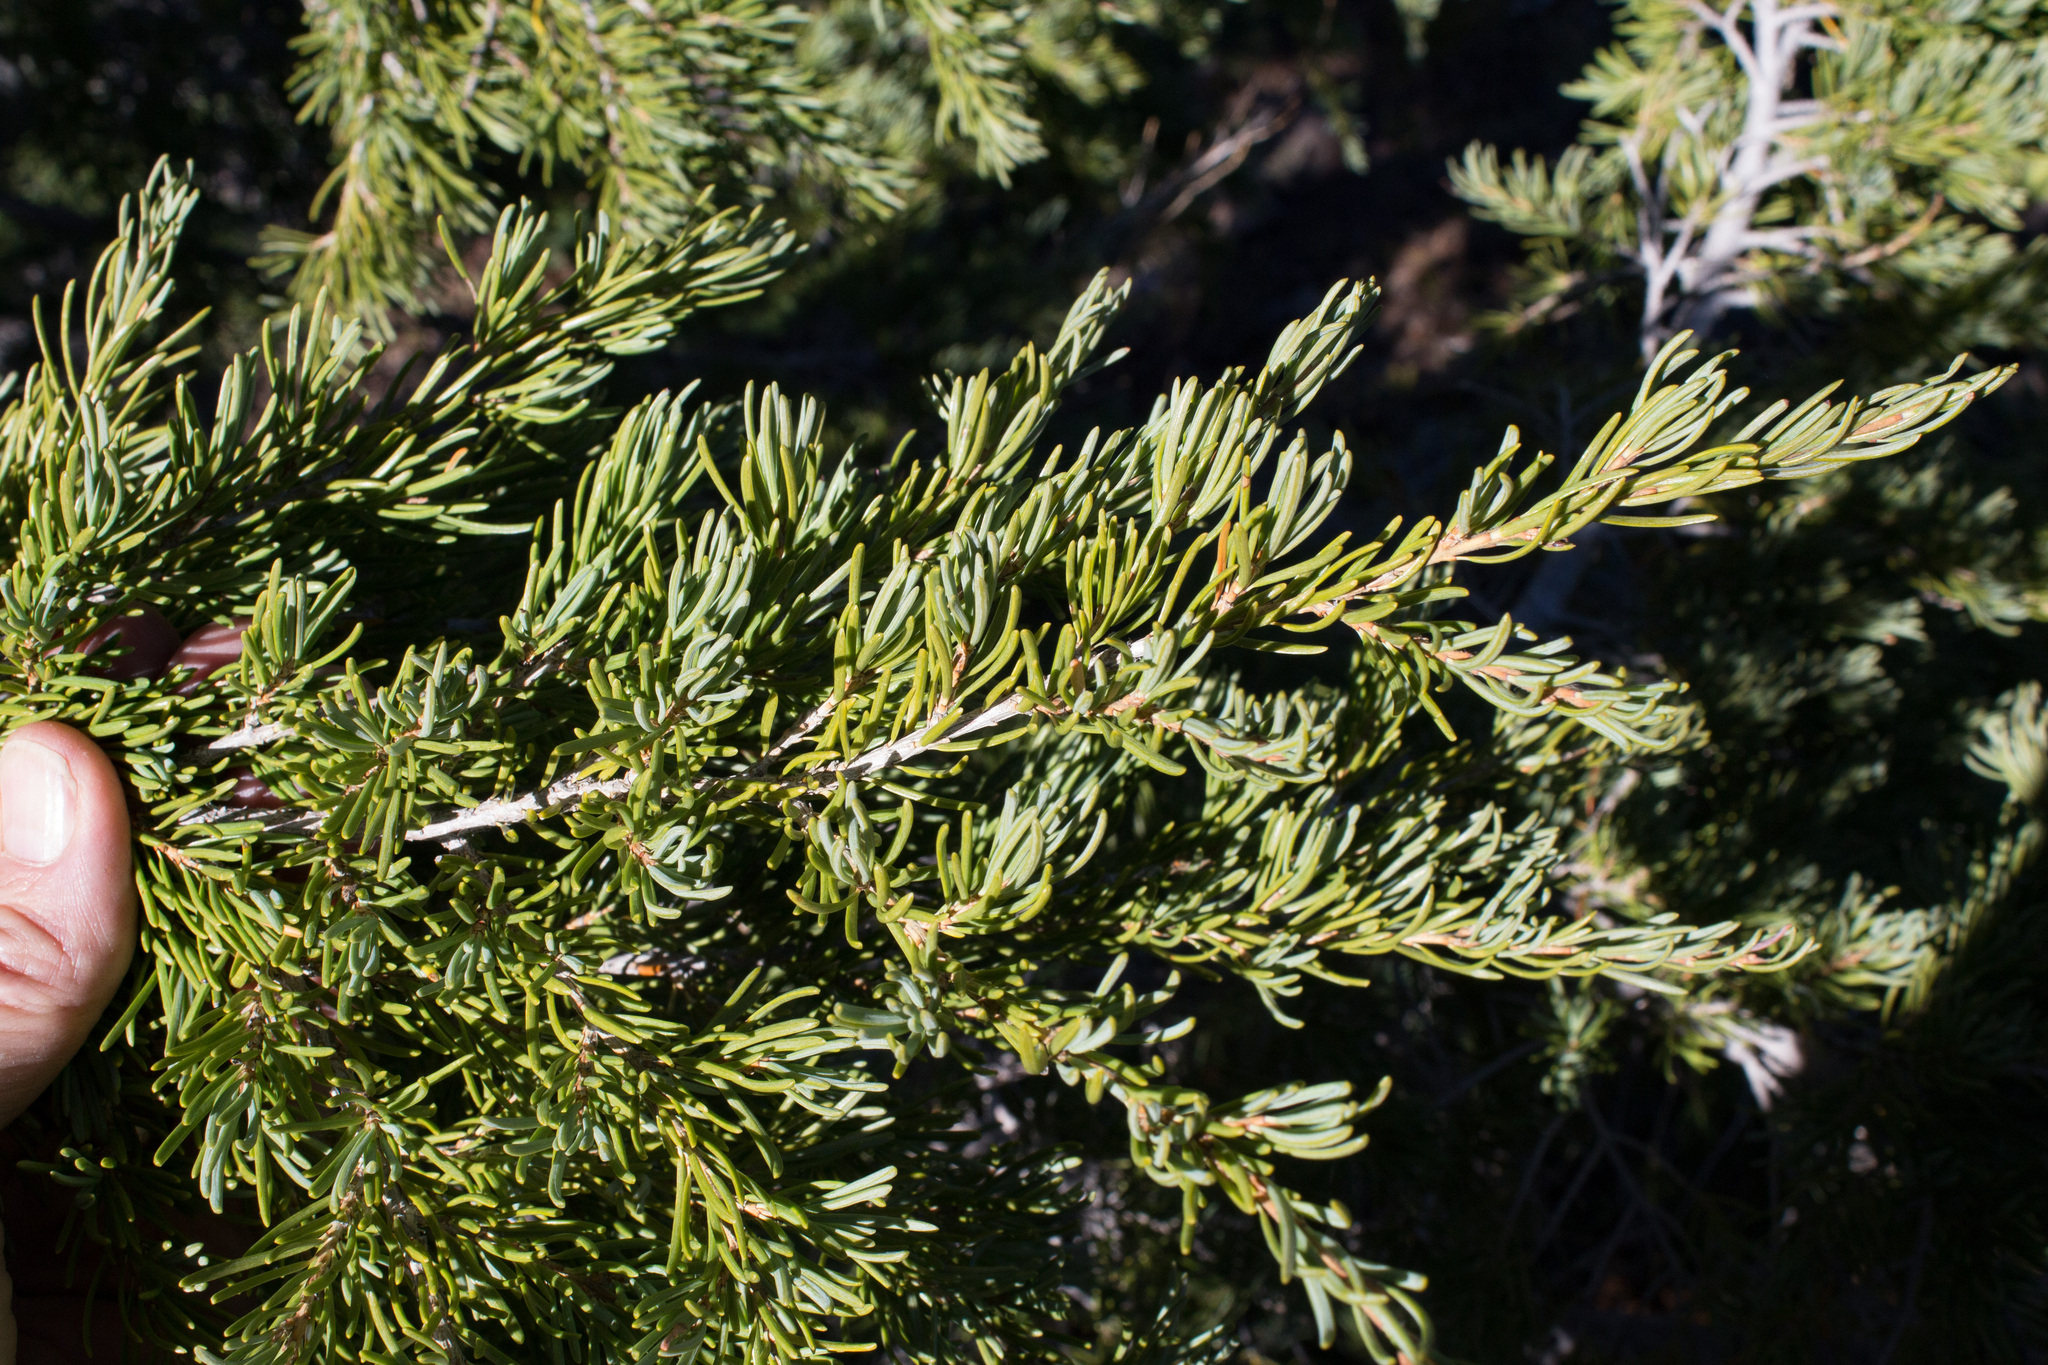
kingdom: Plantae
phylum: Tracheophyta
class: Pinopsida
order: Pinales
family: Pinaceae
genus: Tsuga
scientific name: Tsuga mertensiana
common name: Mountain hemlock
